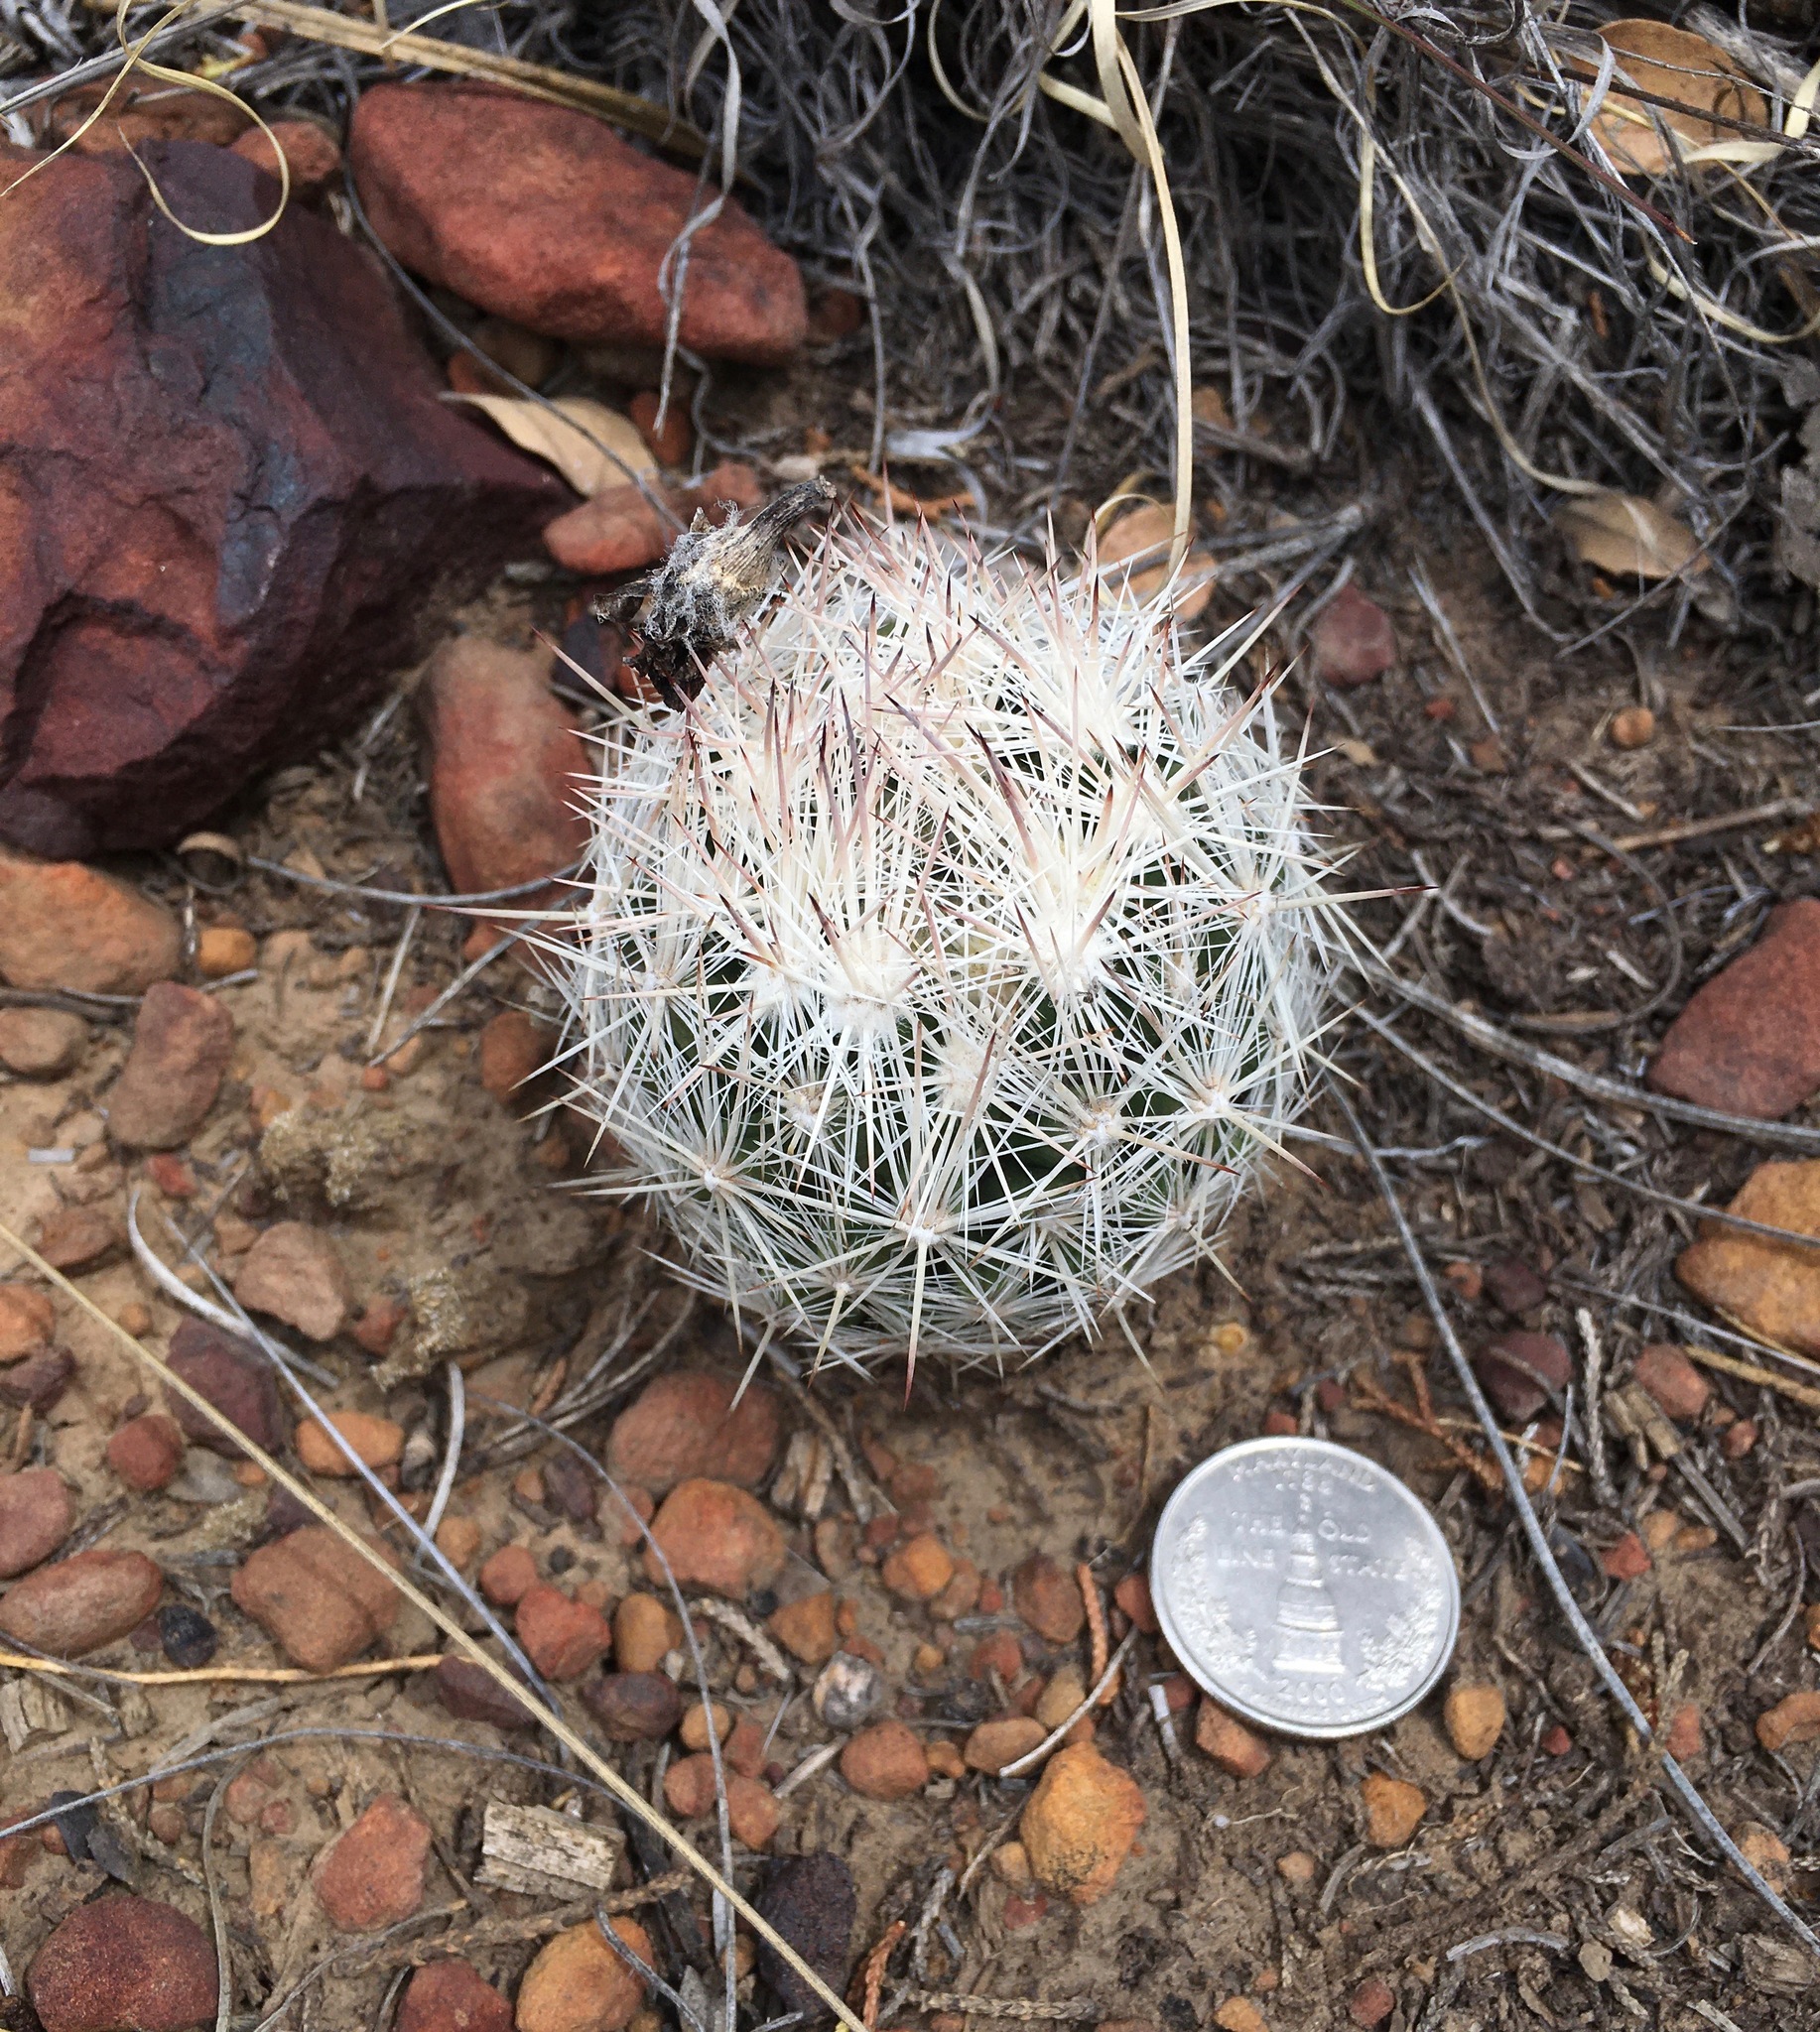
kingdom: Plantae
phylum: Tracheophyta
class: Magnoliopsida
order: Caryophyllales
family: Cactaceae
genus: Pelecyphora
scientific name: Pelecyphora vivipara
